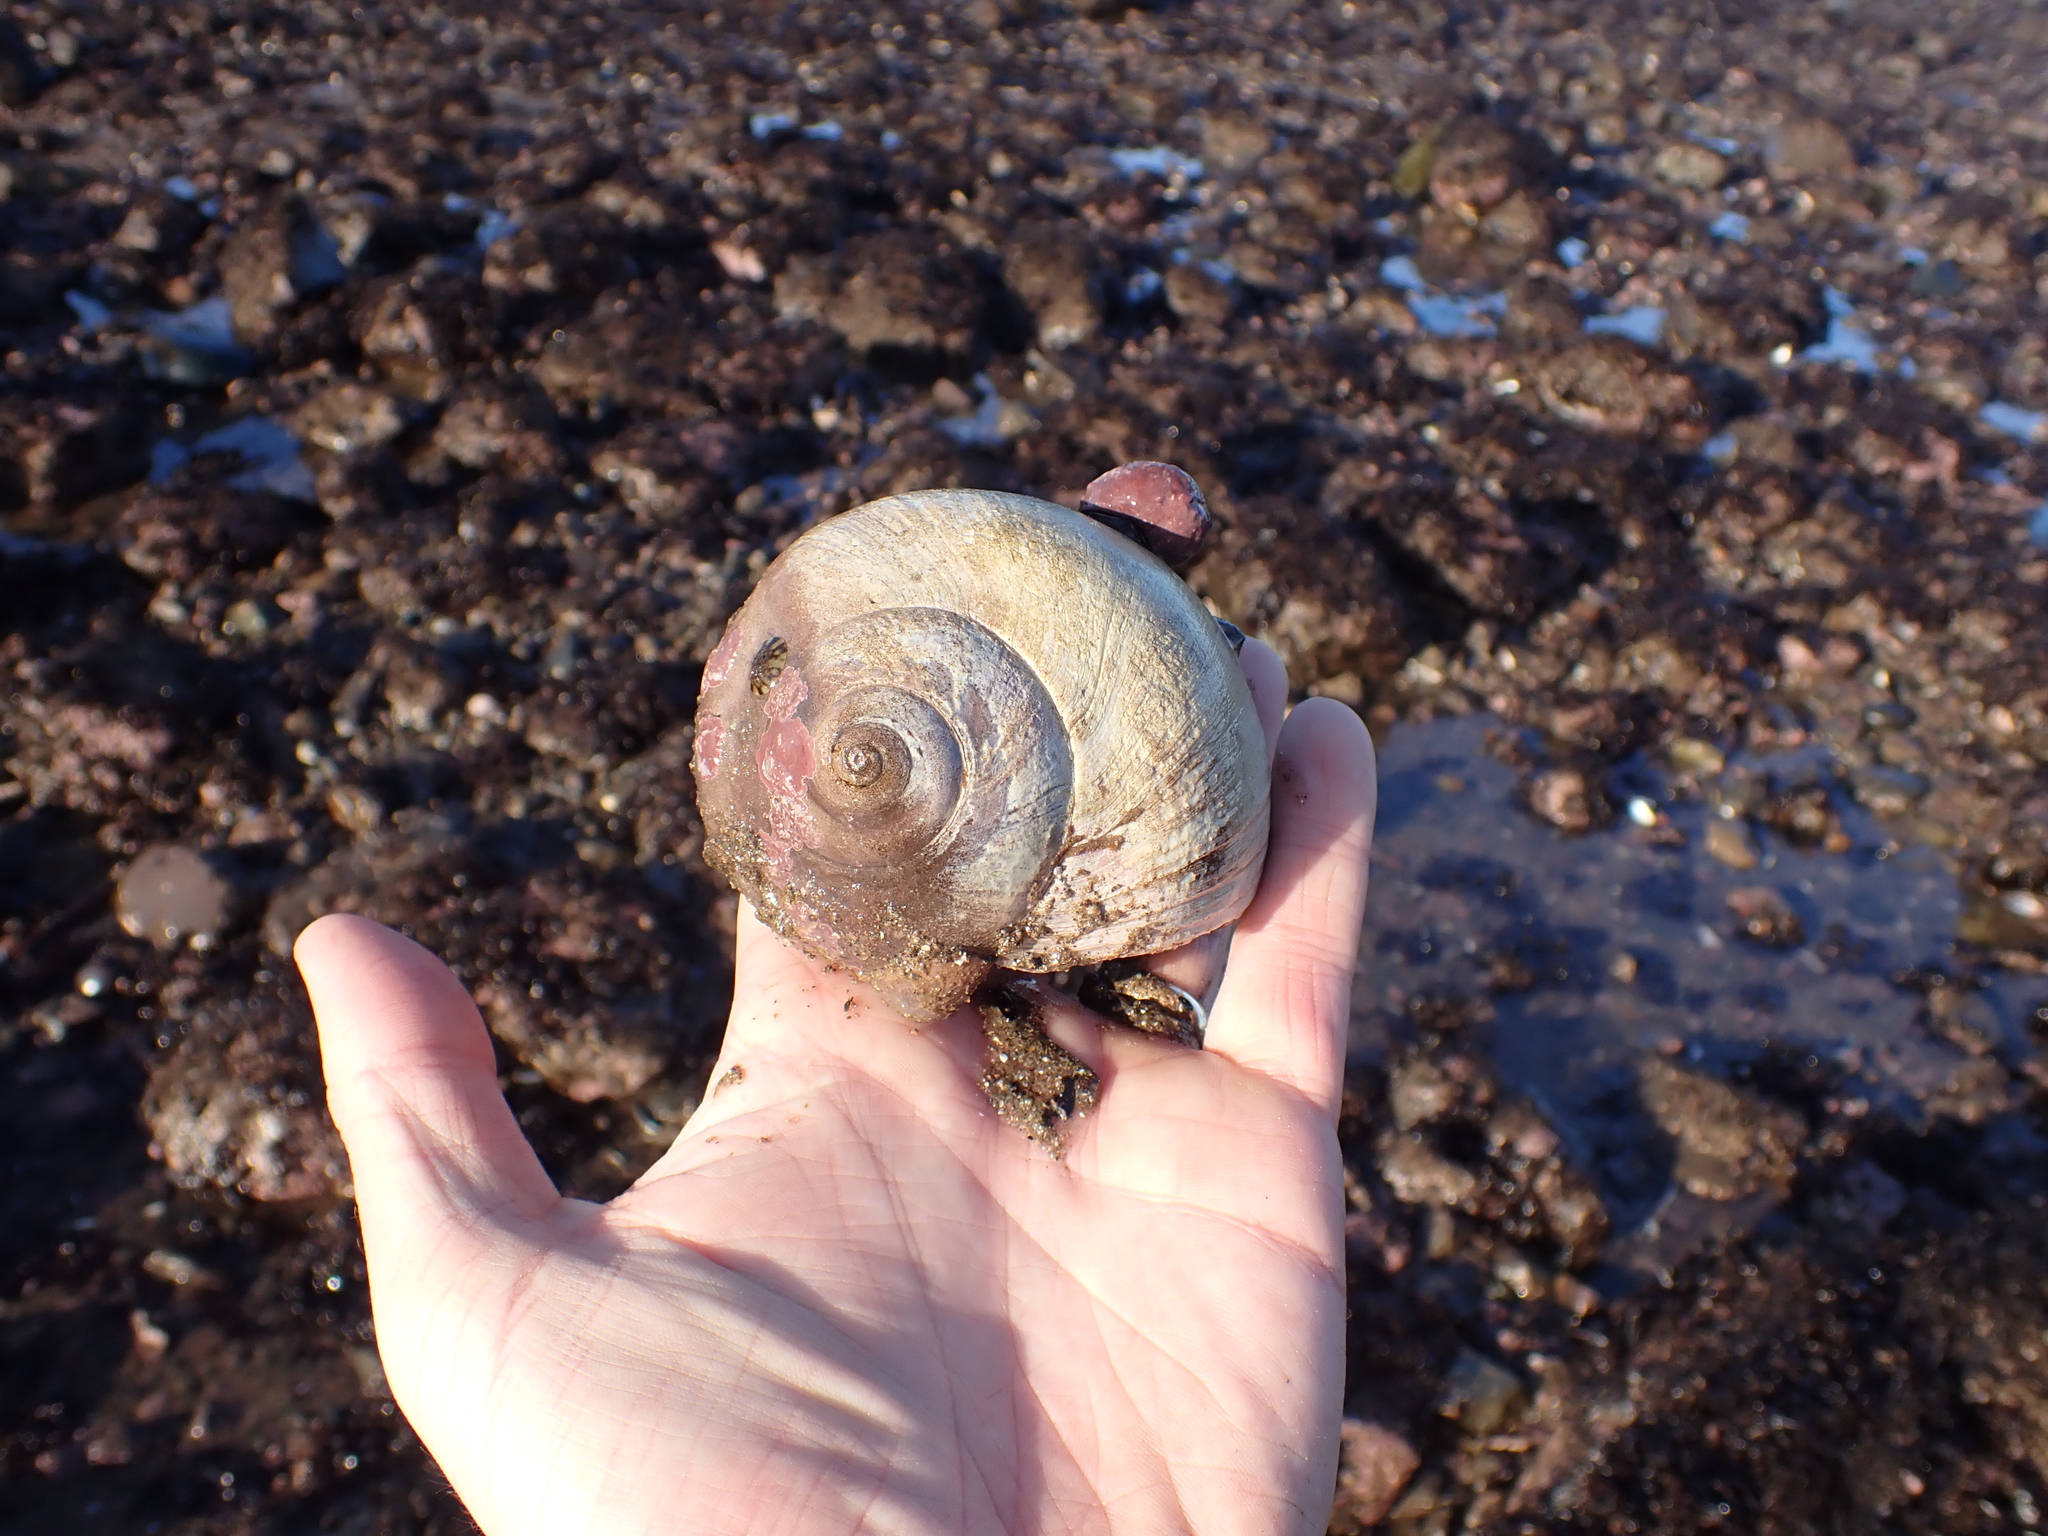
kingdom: Animalia
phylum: Mollusca
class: Gastropoda
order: Littorinimorpha
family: Naticidae
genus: Euspira
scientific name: Euspira heros
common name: Common northern moonsnail
